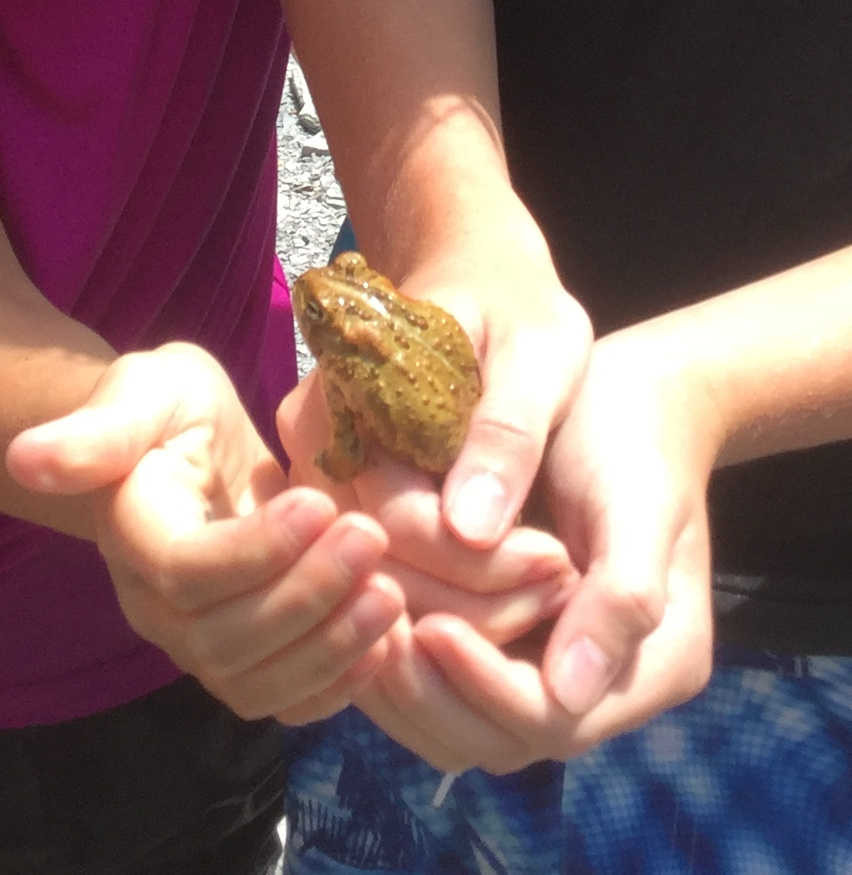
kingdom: Animalia
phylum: Chordata
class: Amphibia
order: Anura
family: Bufonidae
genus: Anaxyrus
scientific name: Anaxyrus americanus
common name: American toad
